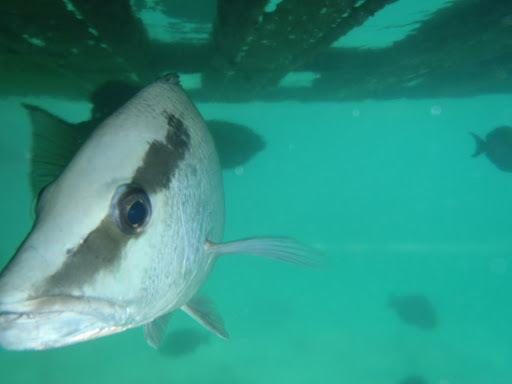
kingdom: Animalia
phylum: Chordata
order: Perciformes
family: Lutjanidae
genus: Lutjanus
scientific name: Lutjanus griseus
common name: Gray snapper
